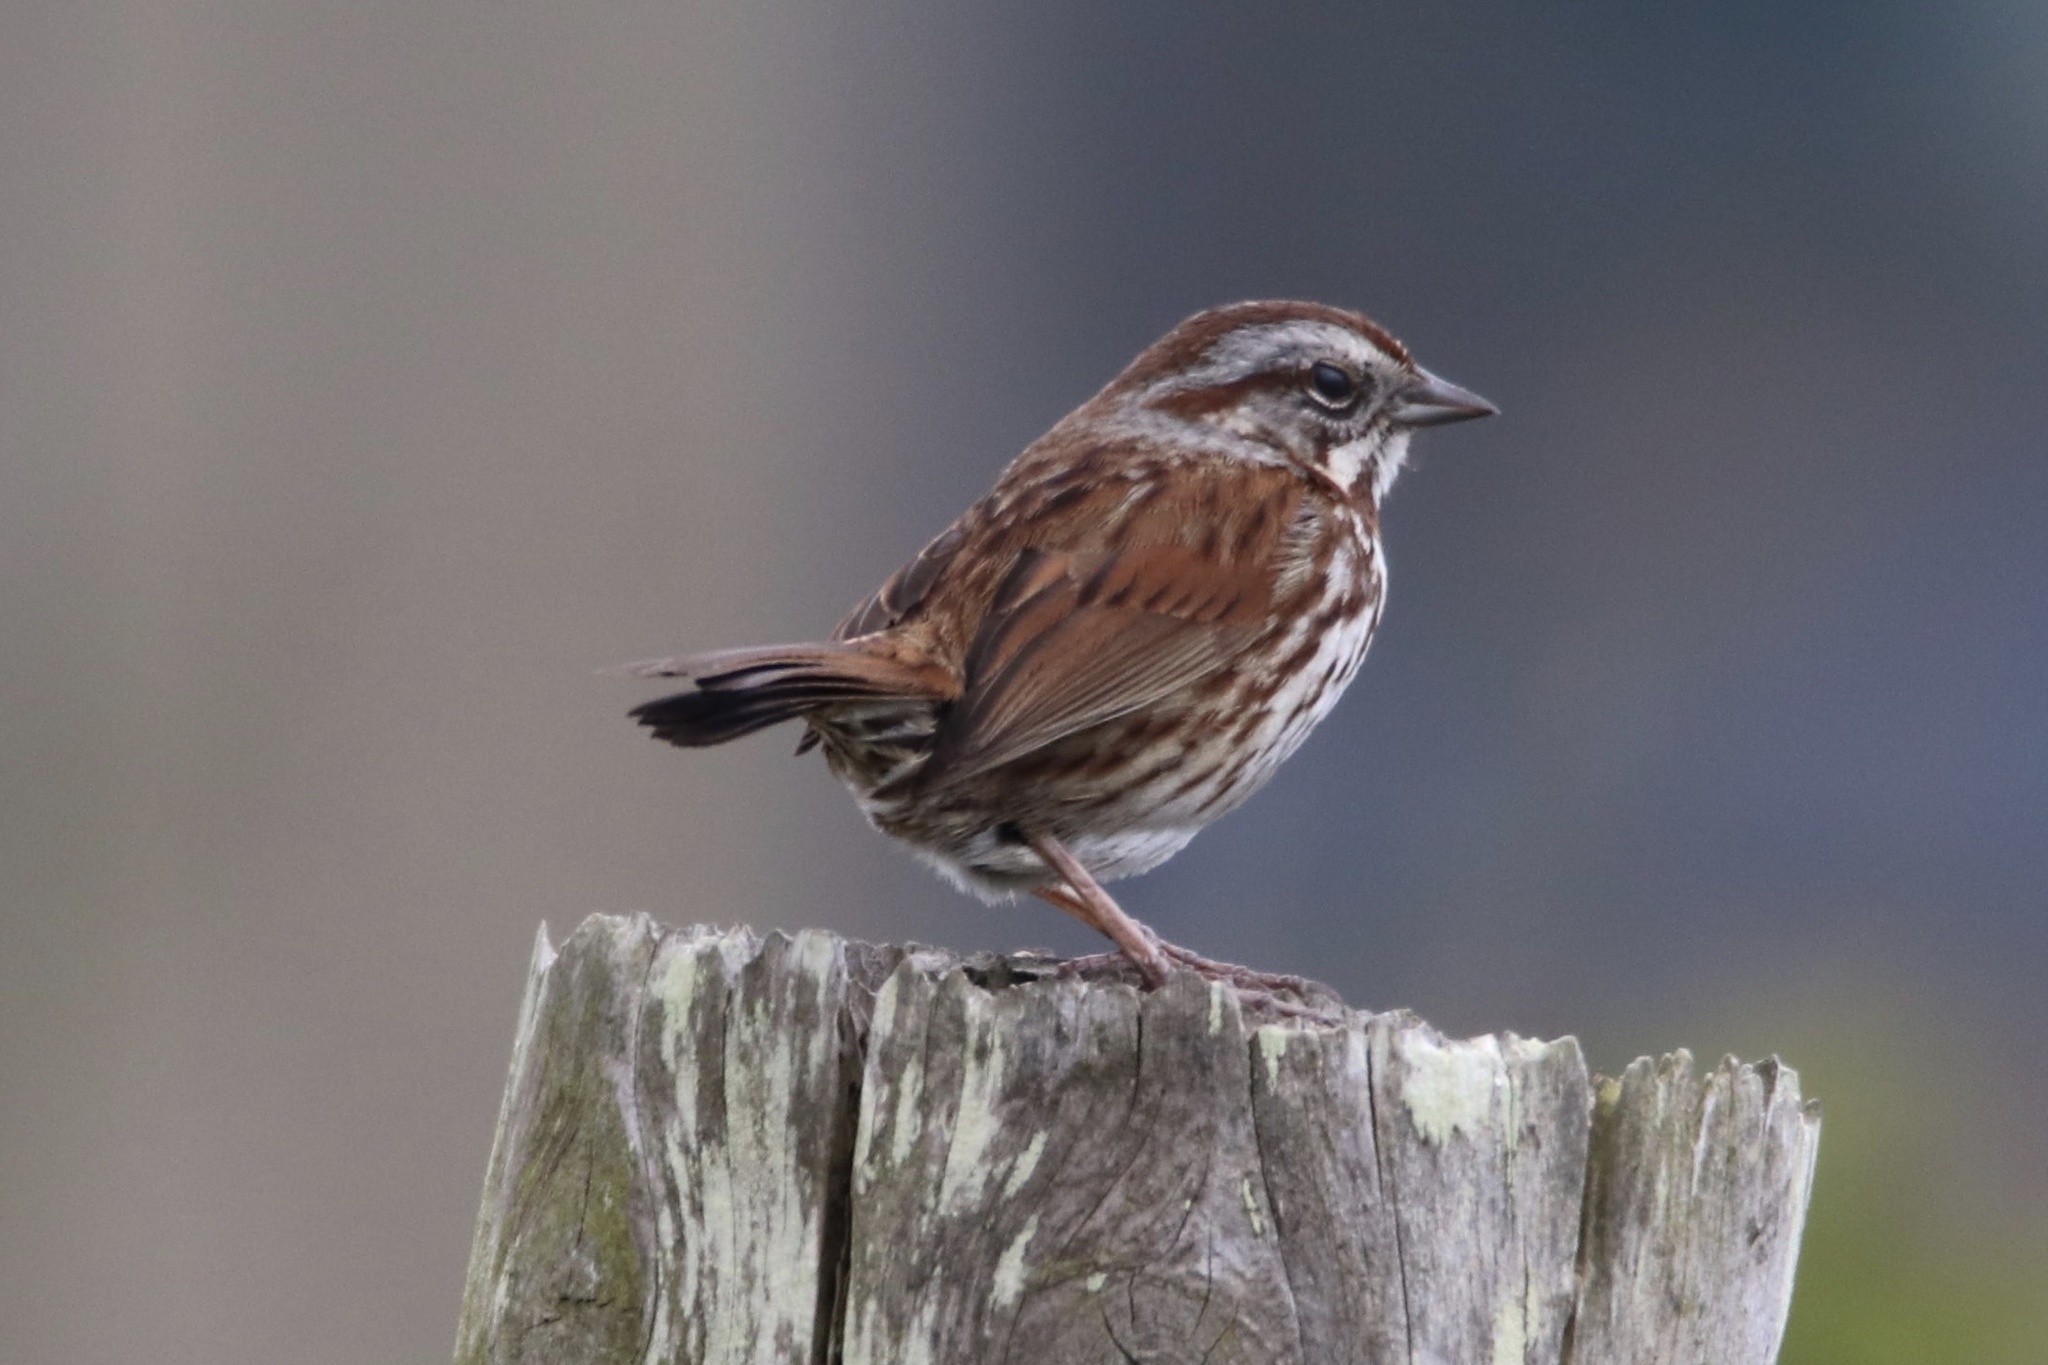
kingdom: Animalia
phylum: Chordata
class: Aves
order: Passeriformes
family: Passerellidae
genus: Melospiza
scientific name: Melospiza melodia
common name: Song sparrow
